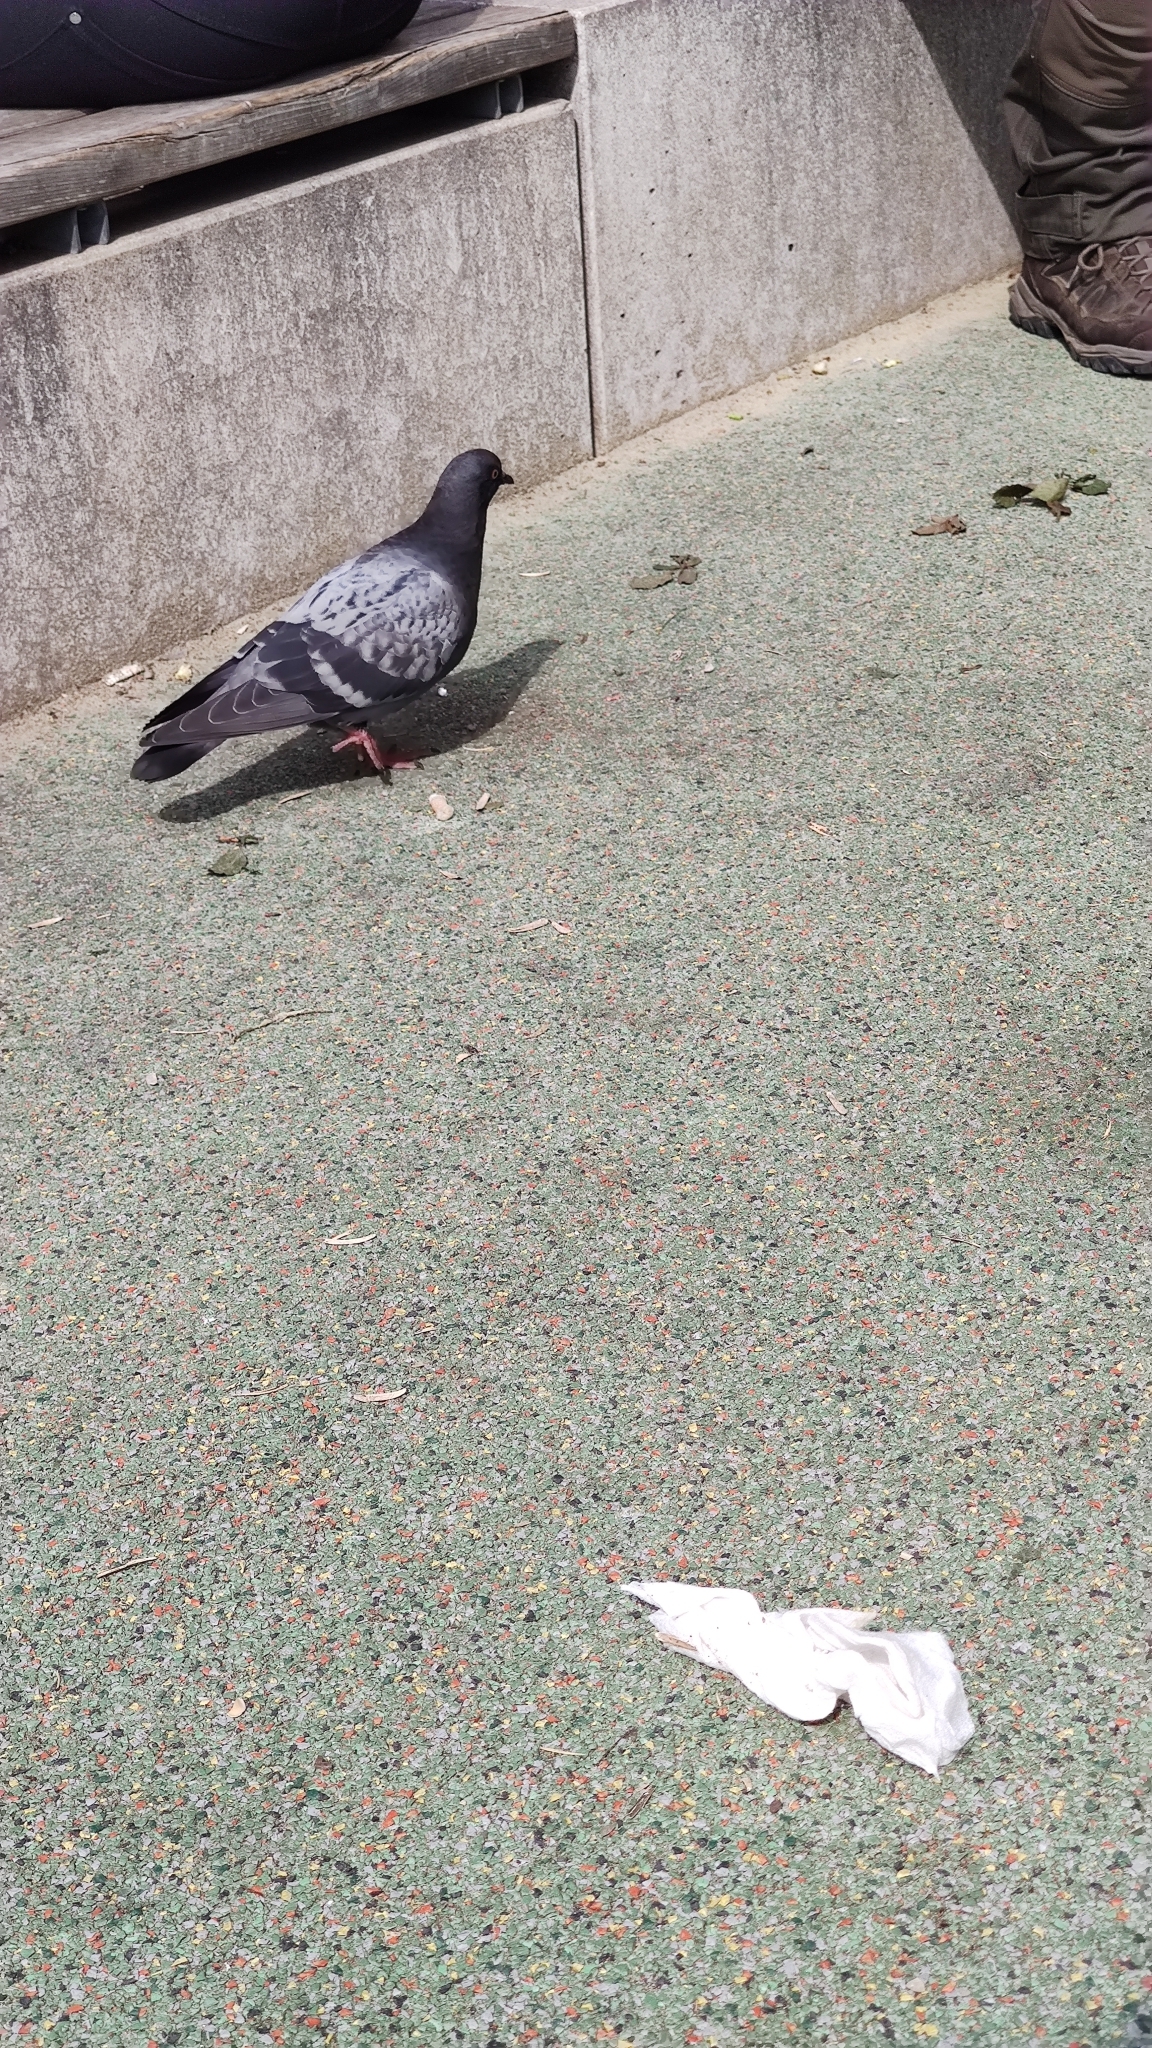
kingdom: Animalia
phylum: Chordata
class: Aves
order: Columbiformes
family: Columbidae
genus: Columba
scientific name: Columba livia
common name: Rock pigeon
